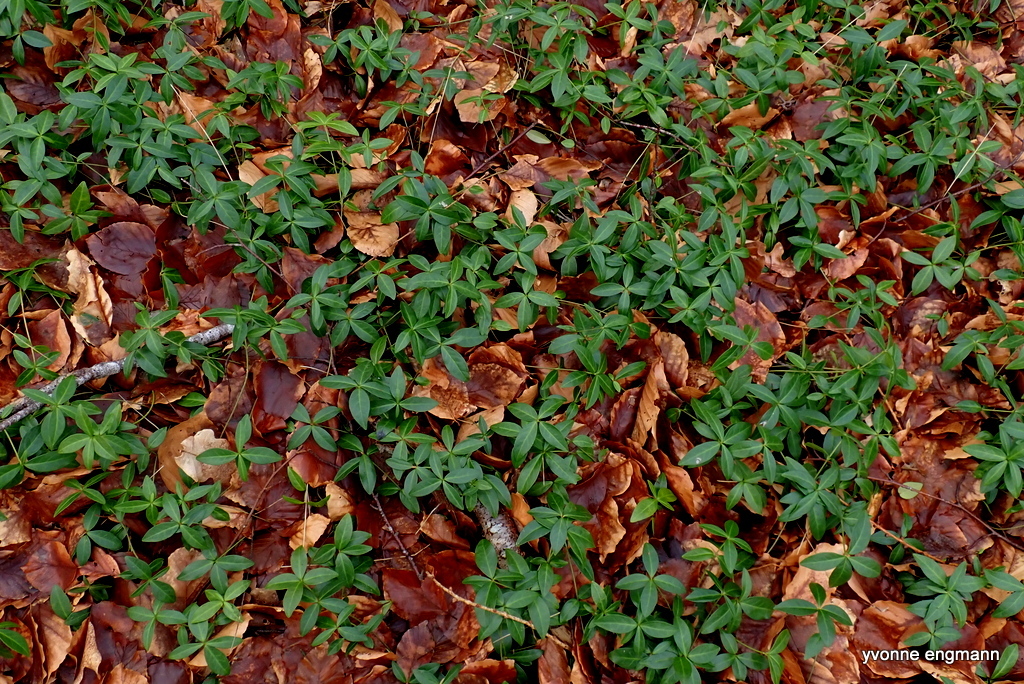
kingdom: Plantae
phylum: Tracheophyta
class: Magnoliopsida
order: Gentianales
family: Apocynaceae
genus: Vinca
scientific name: Vinca minor
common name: Lesser periwinkle
